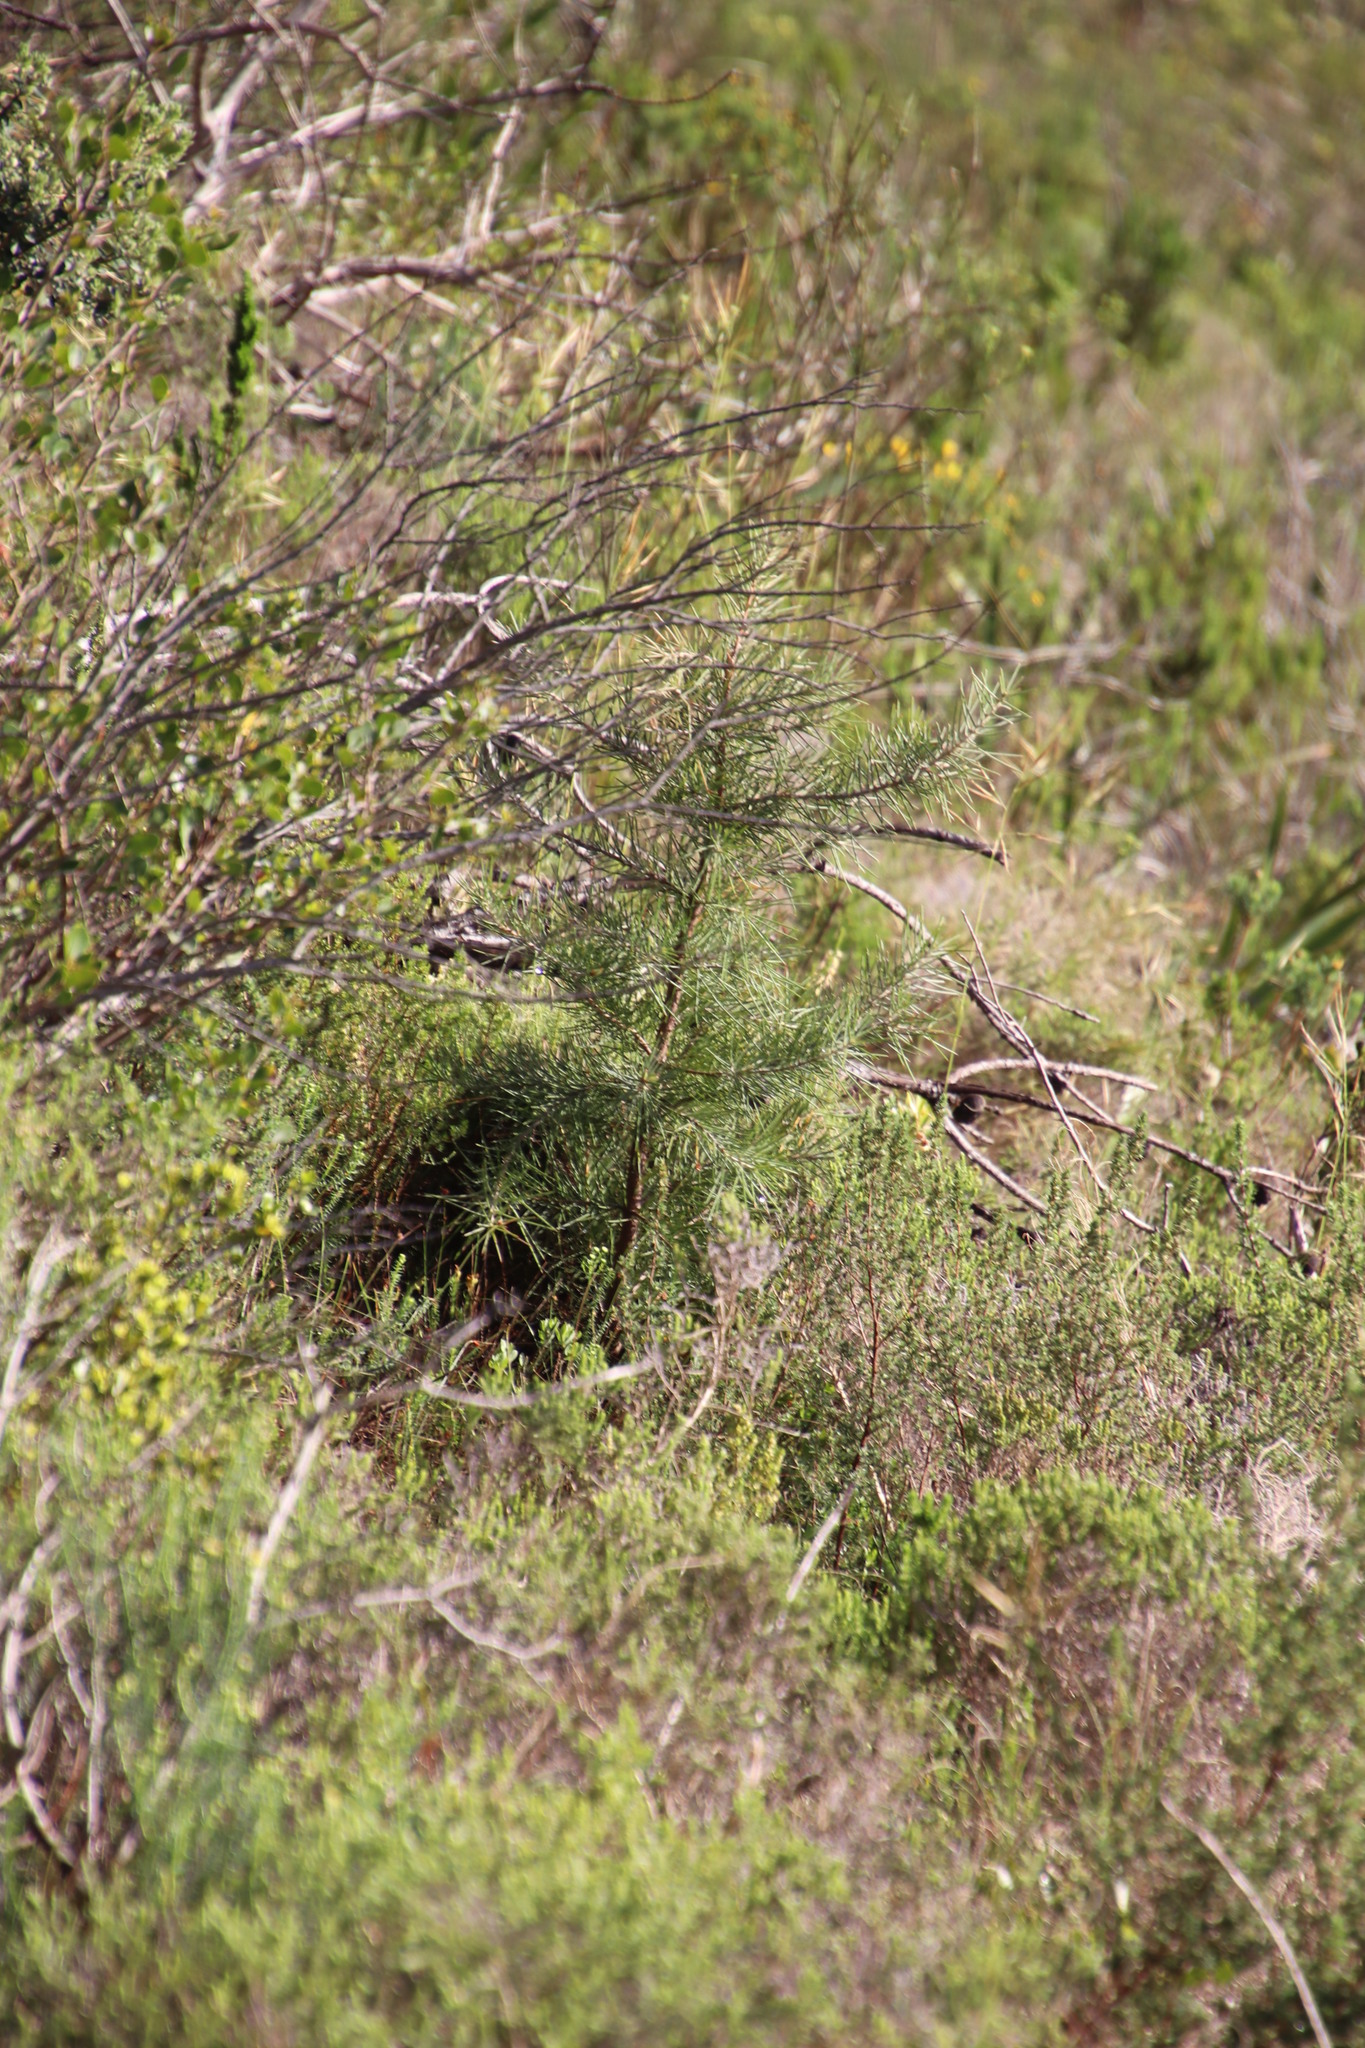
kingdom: Plantae
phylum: Tracheophyta
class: Magnoliopsida
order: Proteales
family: Proteaceae
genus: Hakea
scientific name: Hakea gibbosa
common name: Rock hakea
